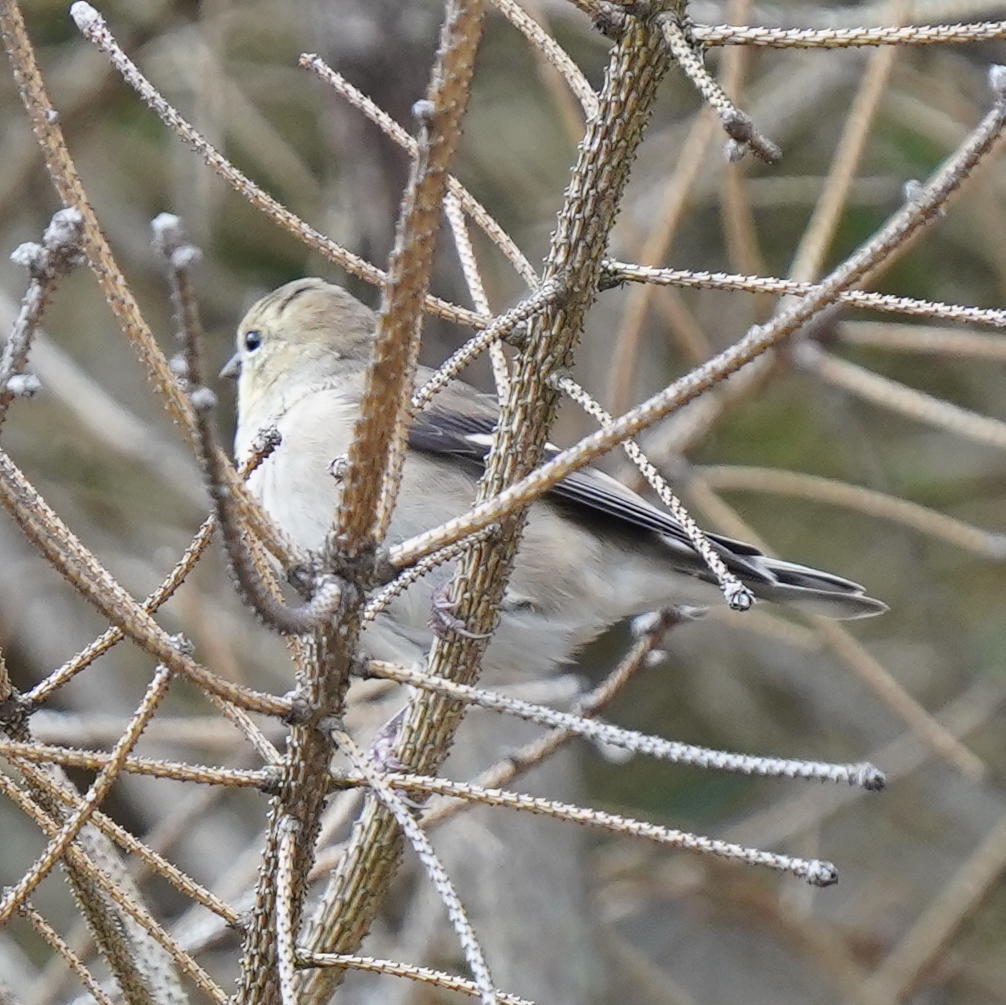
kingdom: Animalia
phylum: Chordata
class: Aves
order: Passeriformes
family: Fringillidae
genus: Spinus
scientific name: Spinus tristis
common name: American goldfinch
